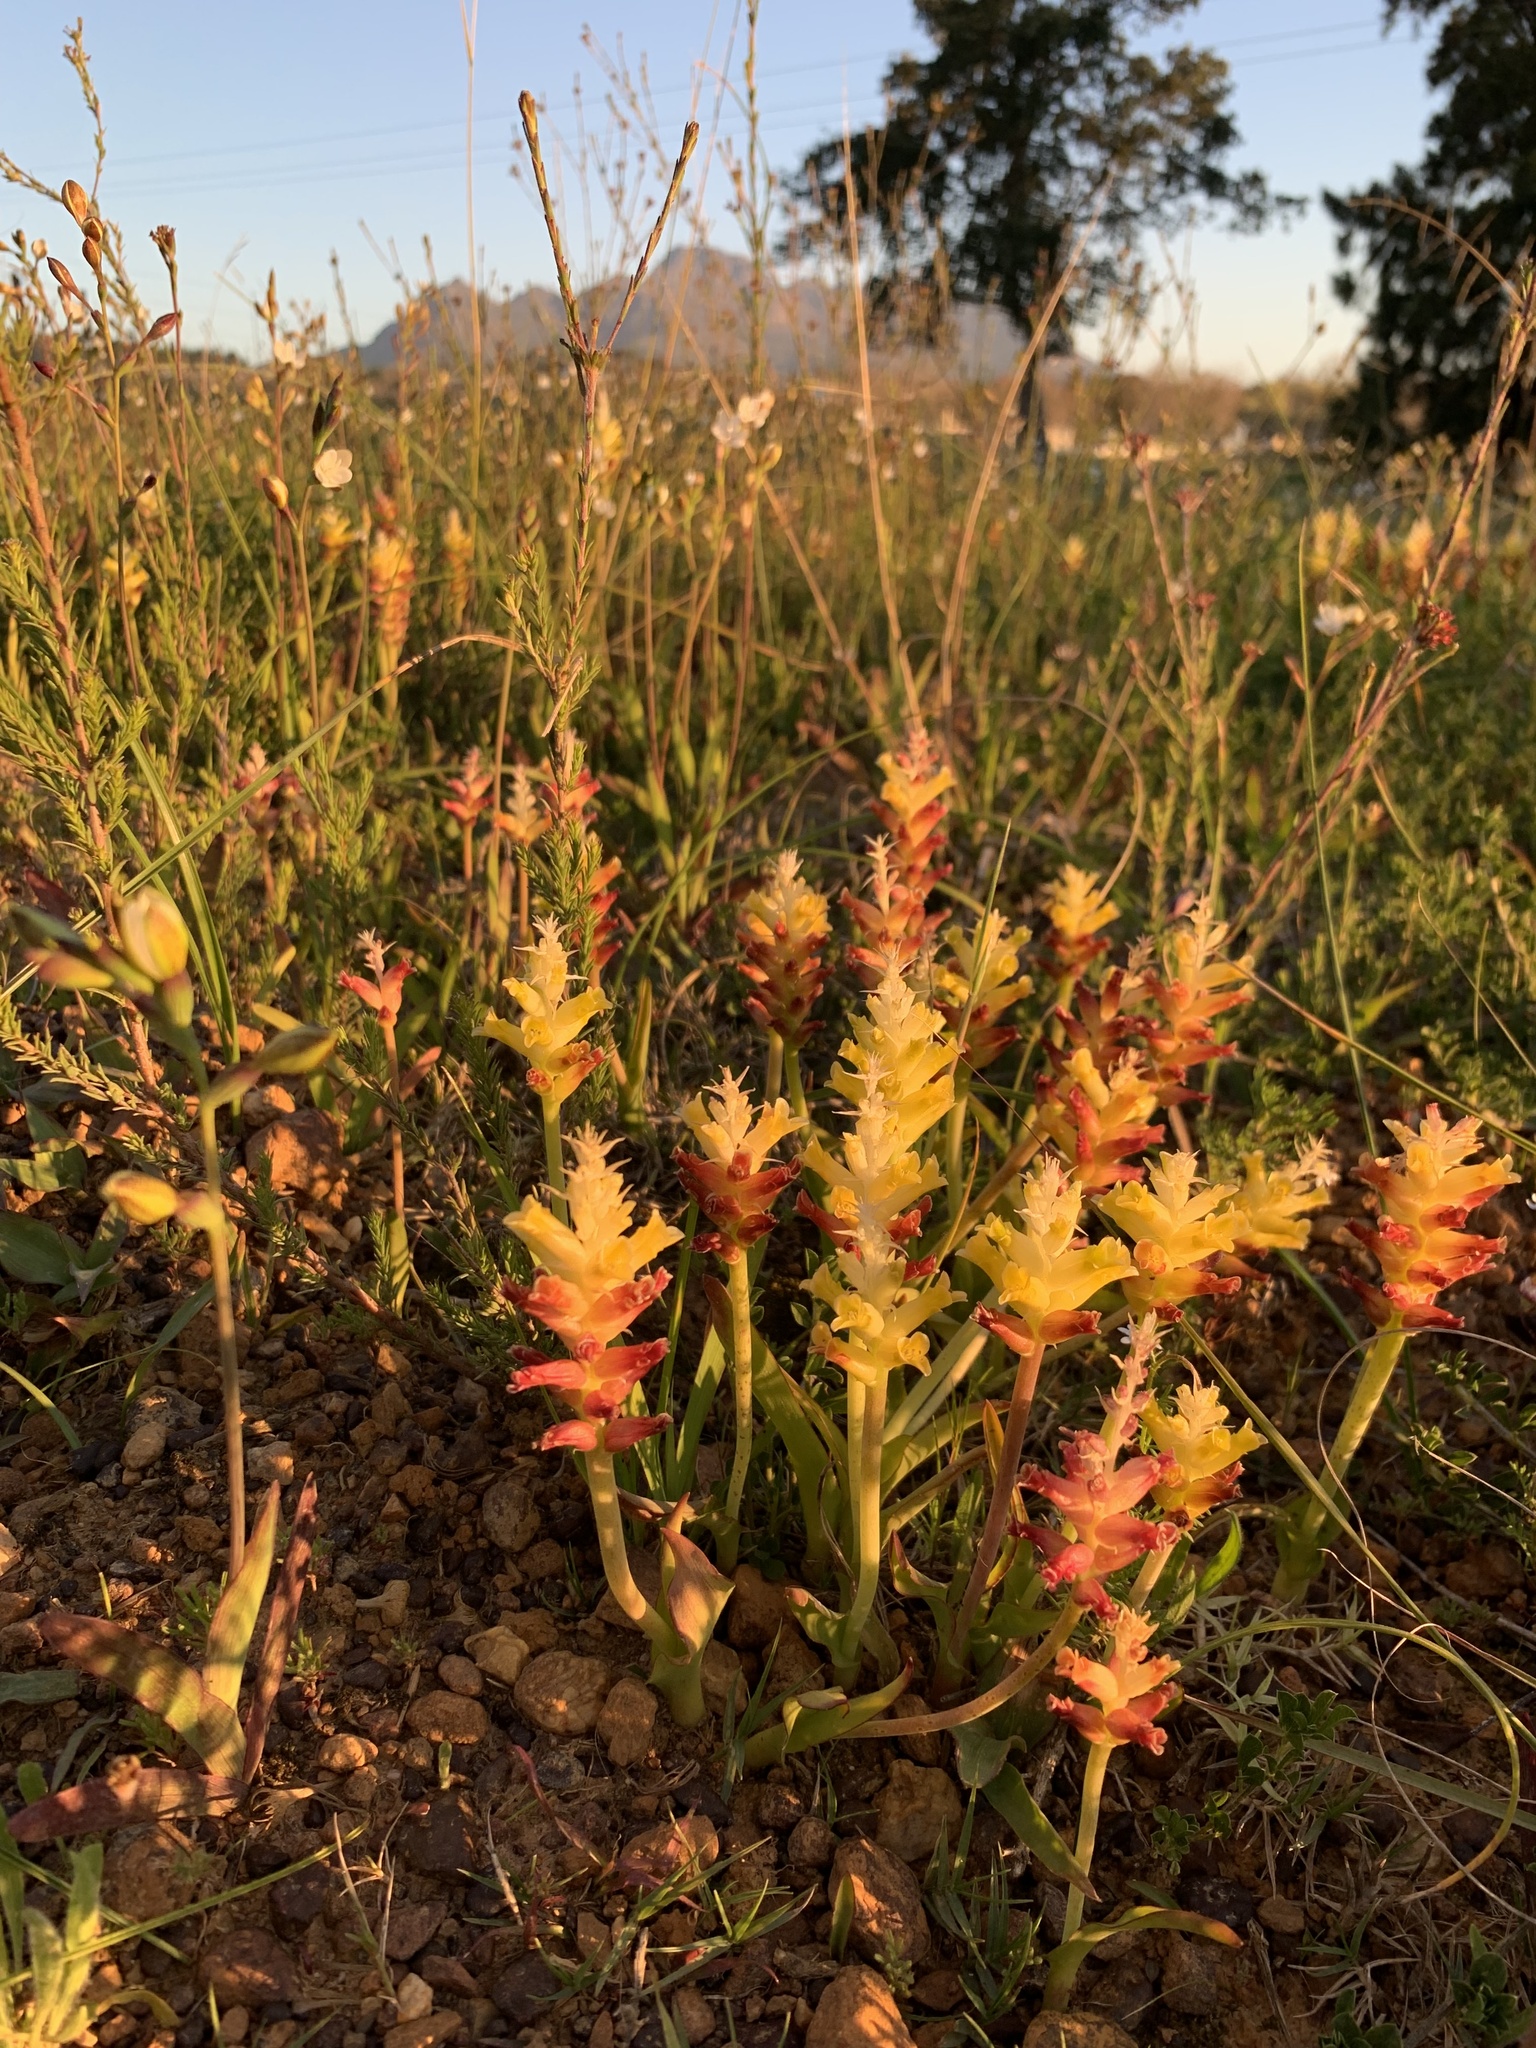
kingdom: Plantae
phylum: Tracheophyta
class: Liliopsida
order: Asparagales
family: Asparagaceae
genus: Lachenalia
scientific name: Lachenalia lutea
